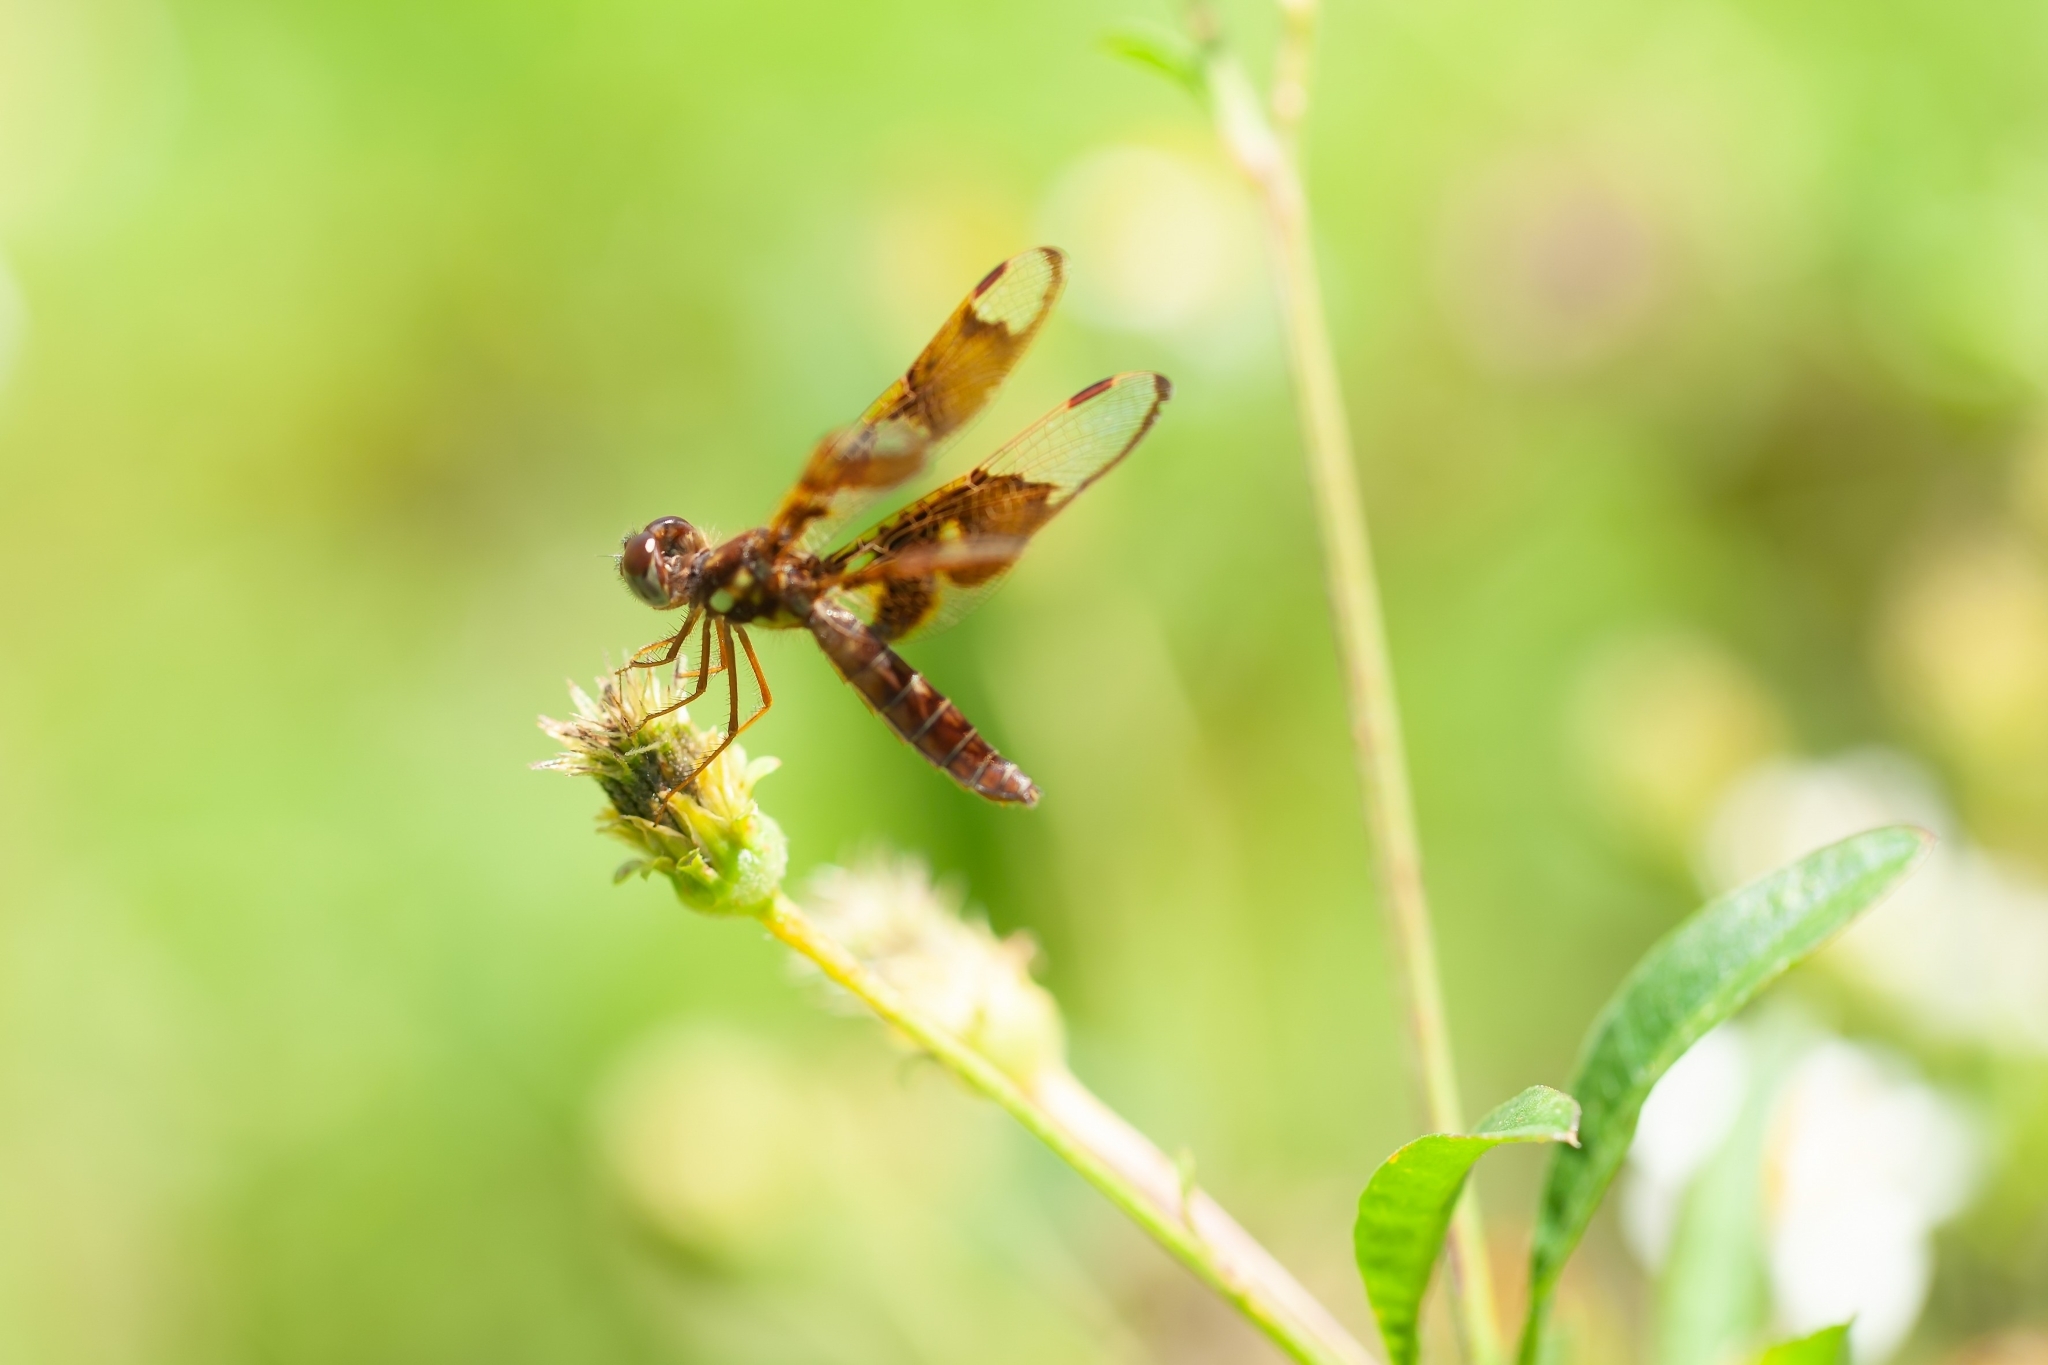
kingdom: Animalia
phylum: Arthropoda
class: Insecta
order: Odonata
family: Libellulidae
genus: Perithemis
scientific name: Perithemis tenera
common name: Eastern amberwing
